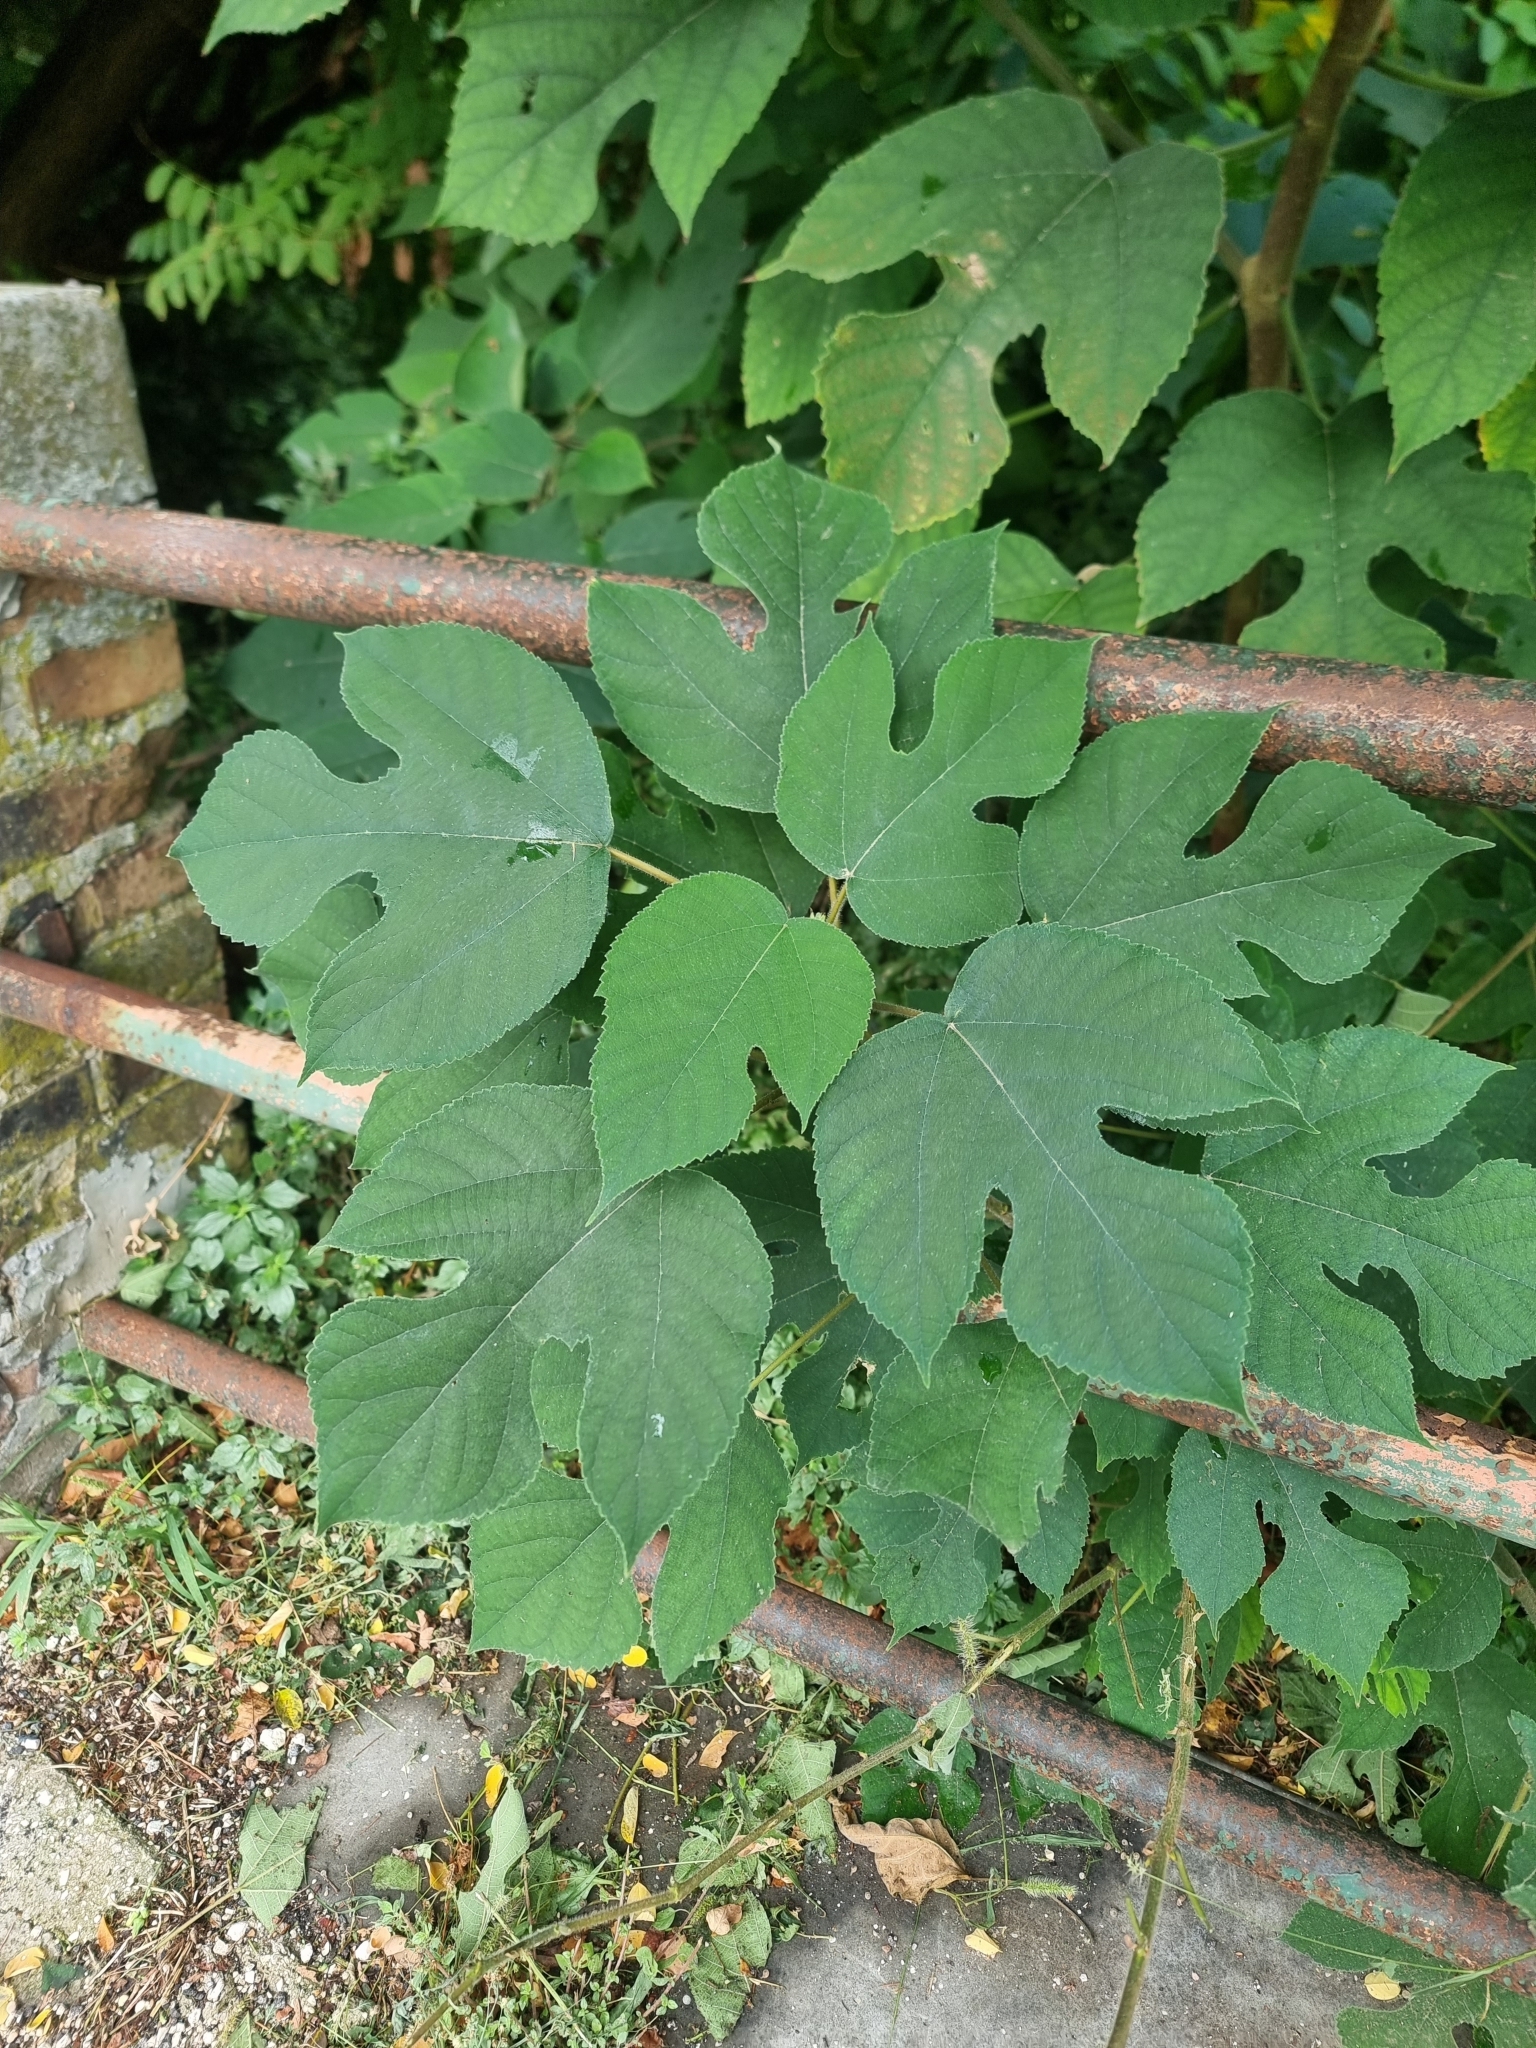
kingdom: Plantae
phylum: Tracheophyta
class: Magnoliopsida
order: Rosales
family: Moraceae
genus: Broussonetia
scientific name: Broussonetia papyrifera
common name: Paper mulberry
